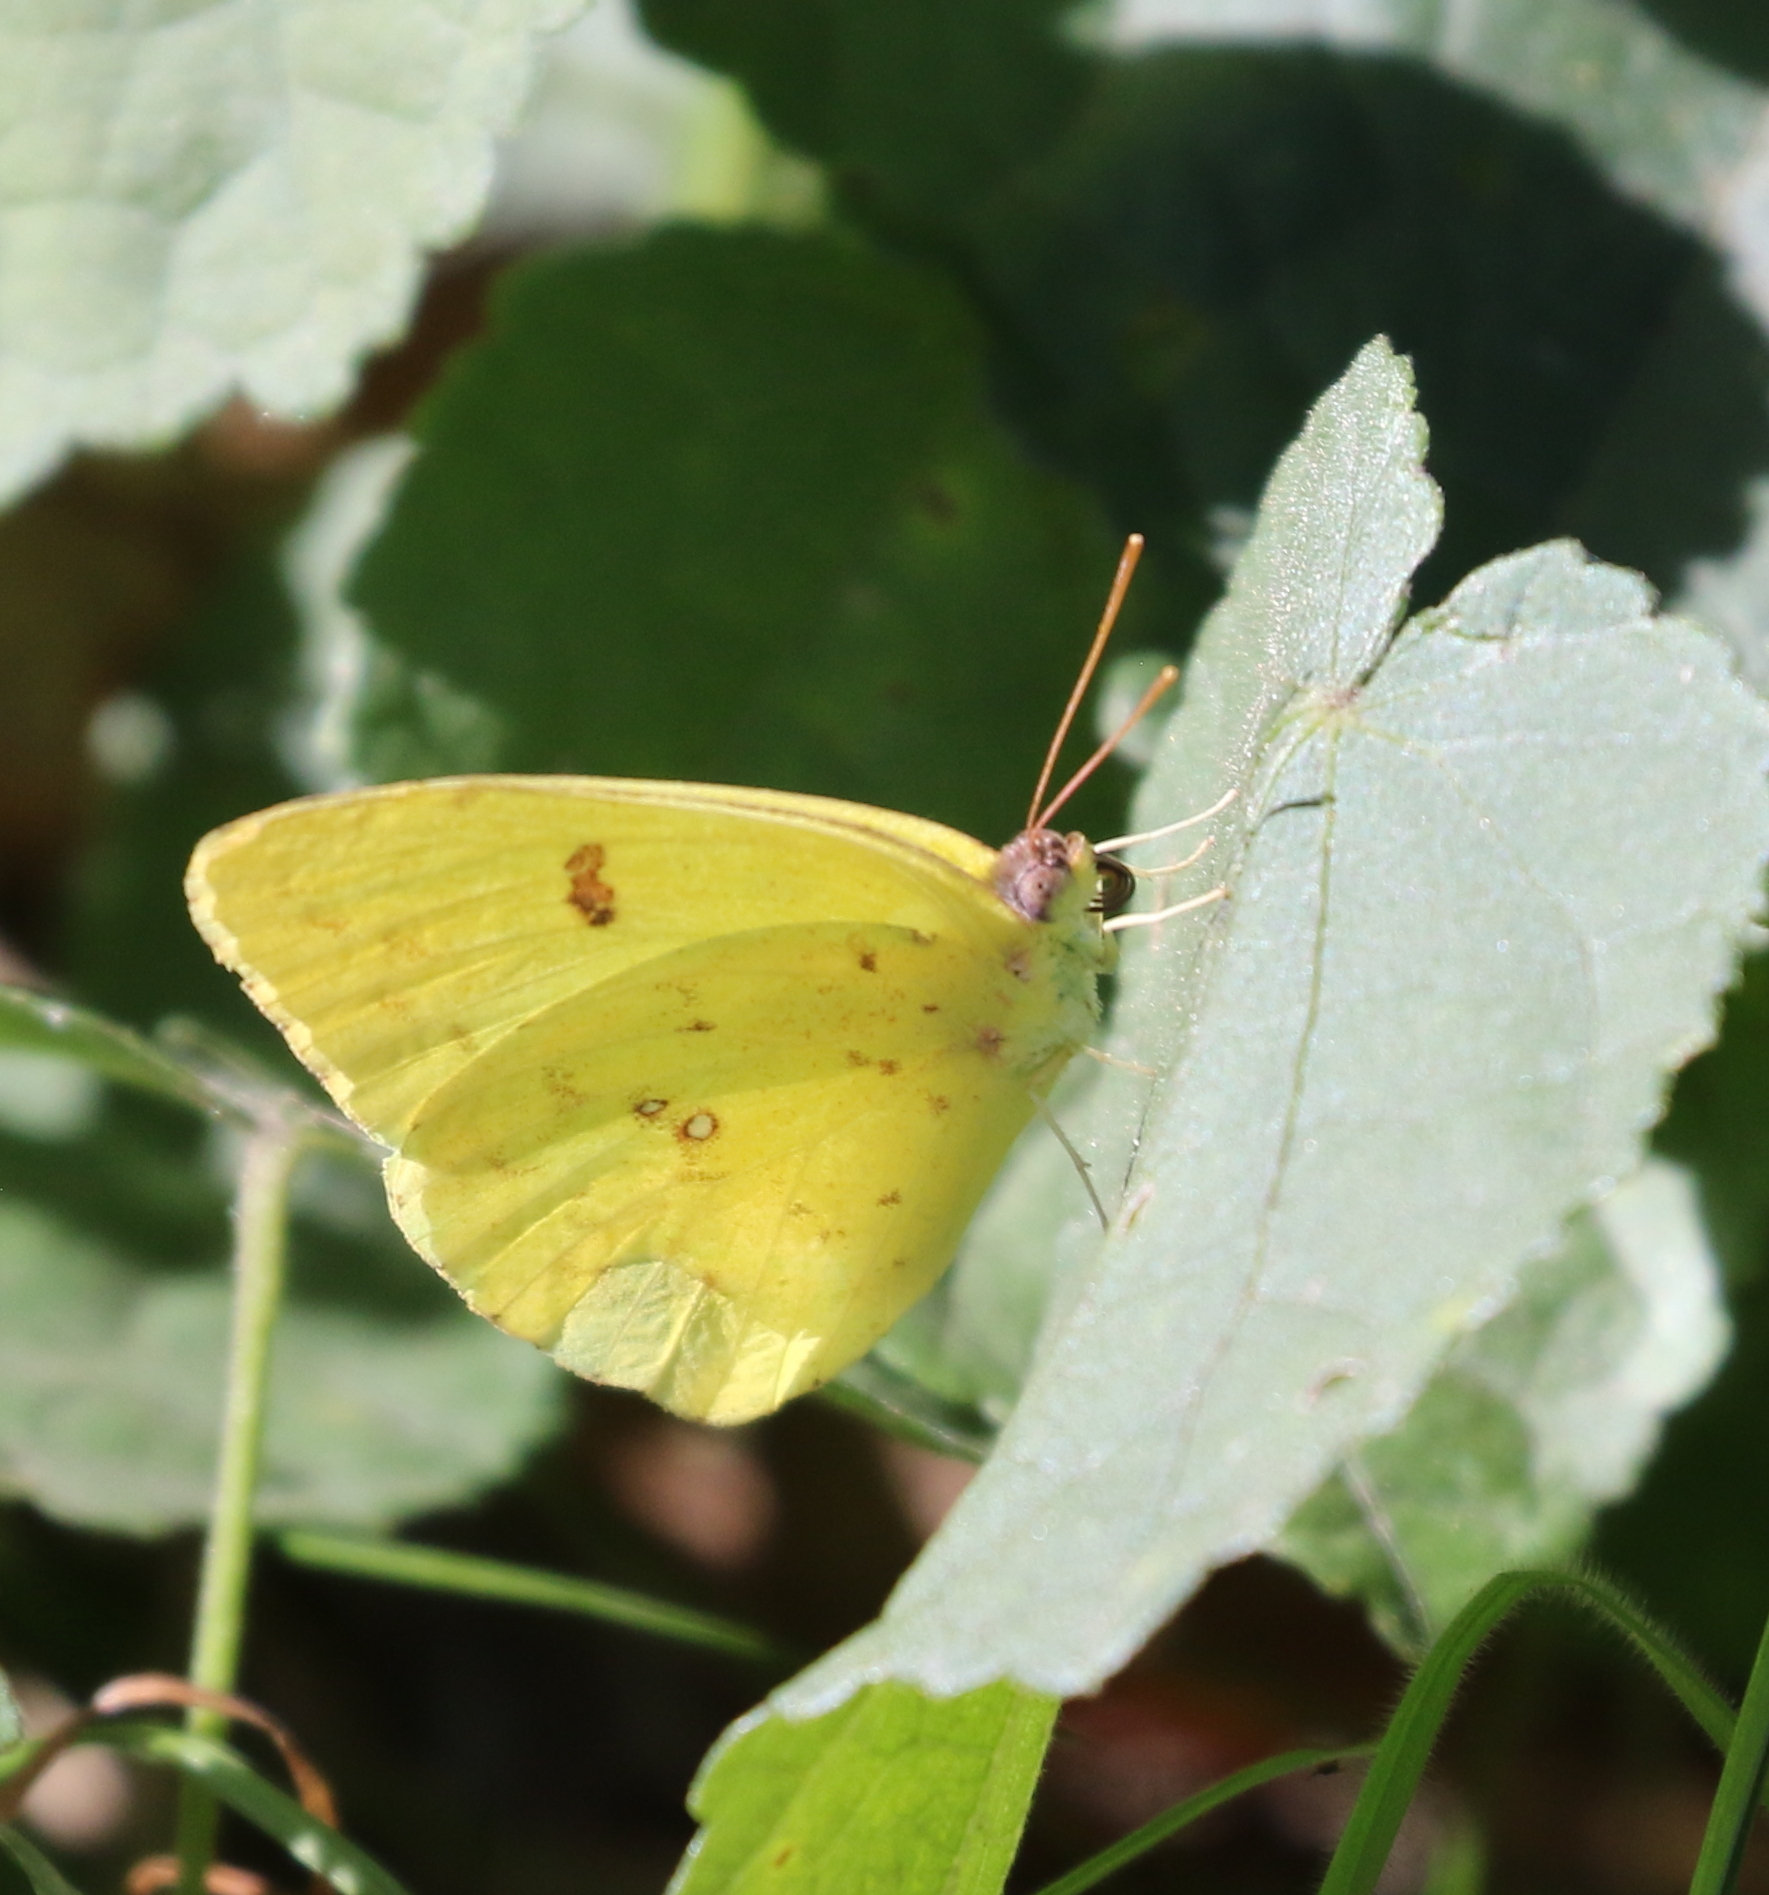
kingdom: Animalia
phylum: Arthropoda
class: Insecta
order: Lepidoptera
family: Pieridae
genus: Phoebis
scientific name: Phoebis sennae
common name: Cloudless sulphur
